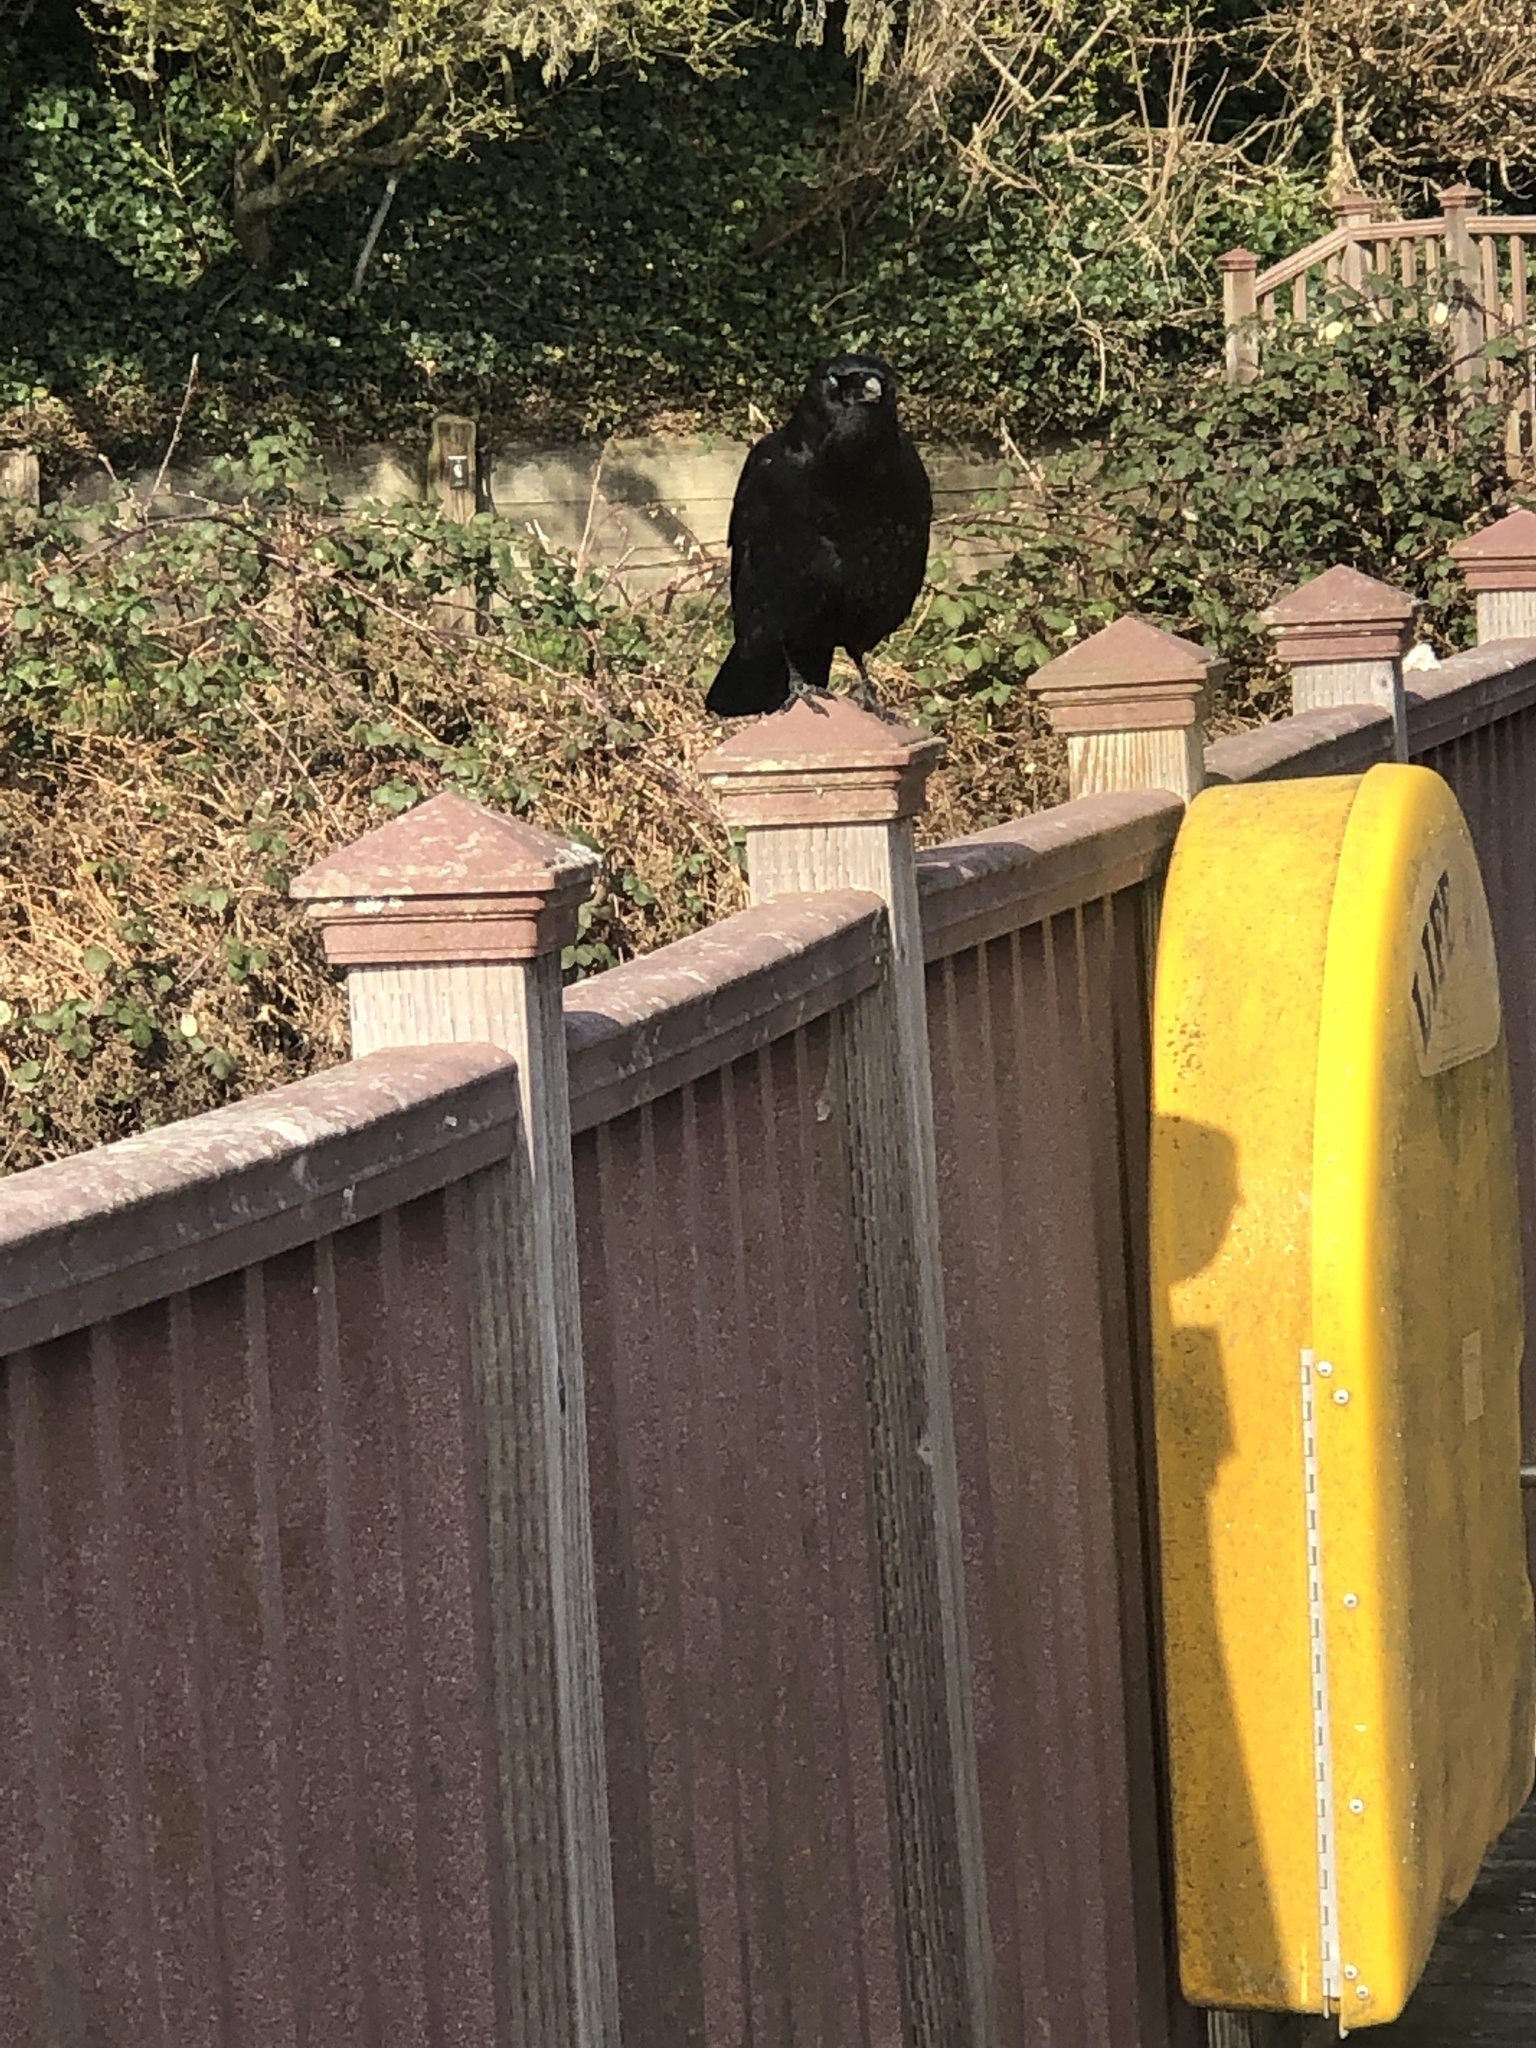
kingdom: Animalia
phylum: Chordata
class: Aves
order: Passeriformes
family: Corvidae
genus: Corvus
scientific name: Corvus brachyrhynchos
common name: American crow
